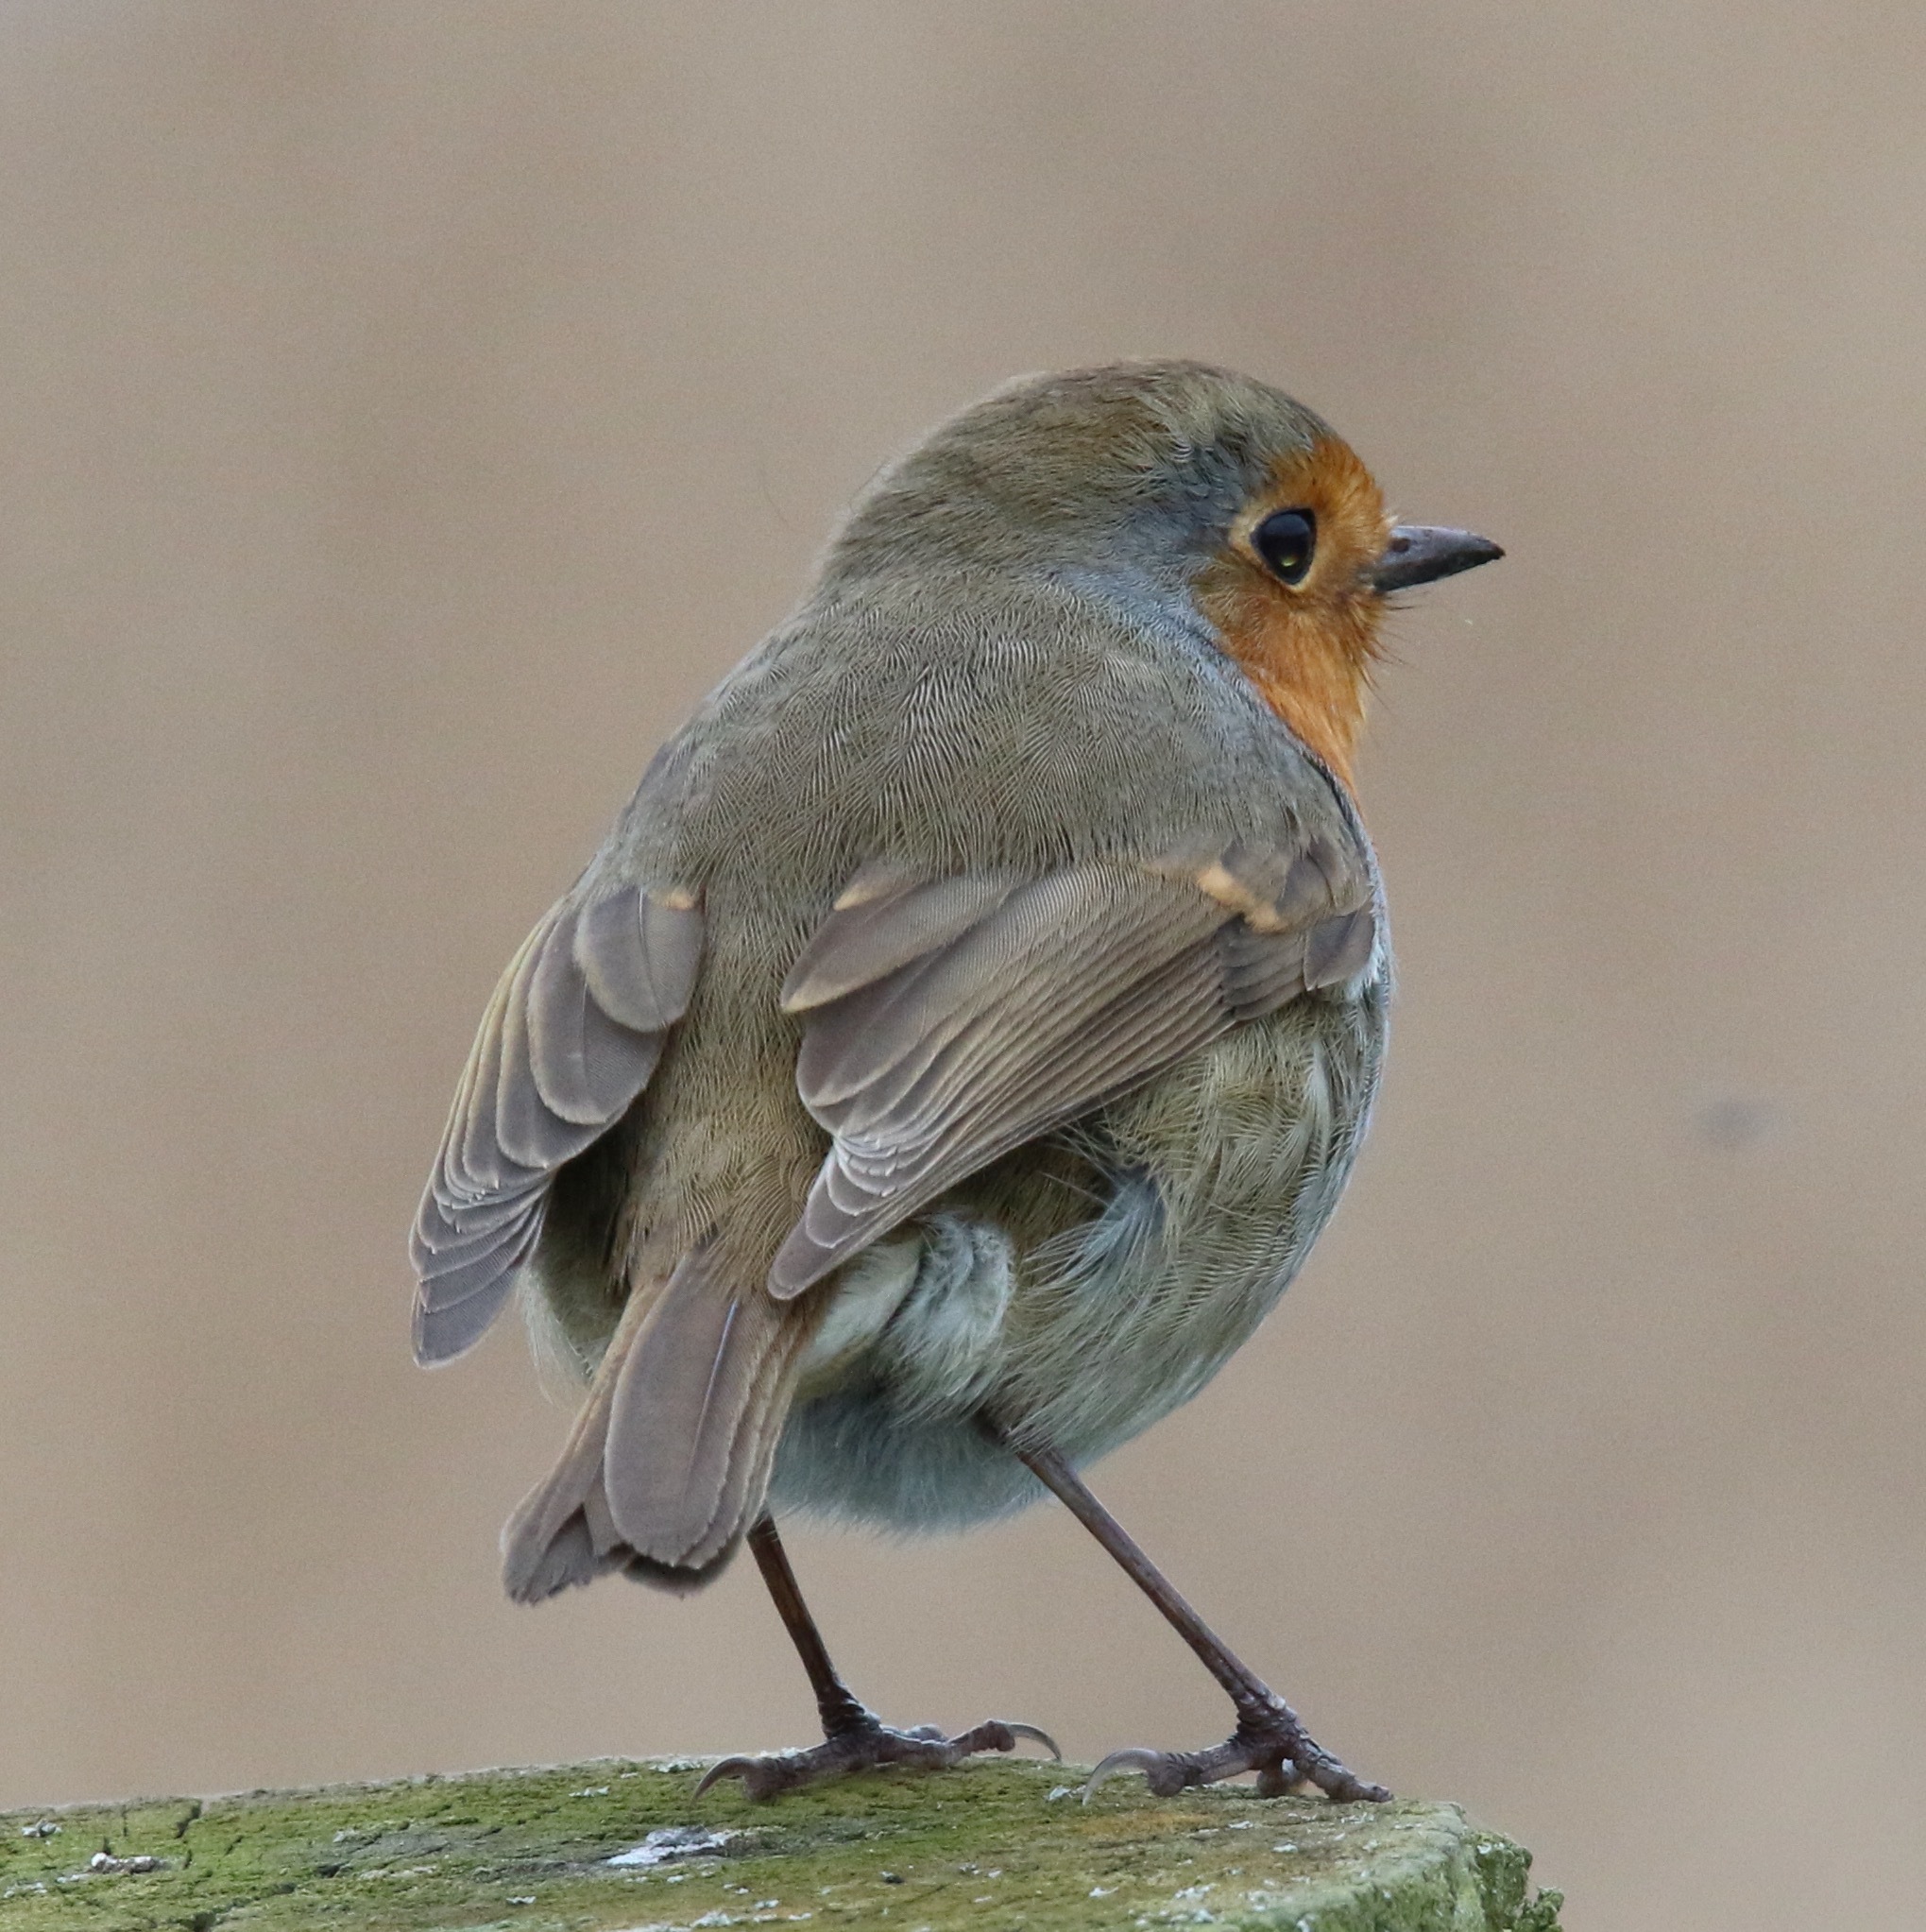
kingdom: Animalia
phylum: Chordata
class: Aves
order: Passeriformes
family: Muscicapidae
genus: Erithacus
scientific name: Erithacus rubecula
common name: European robin
